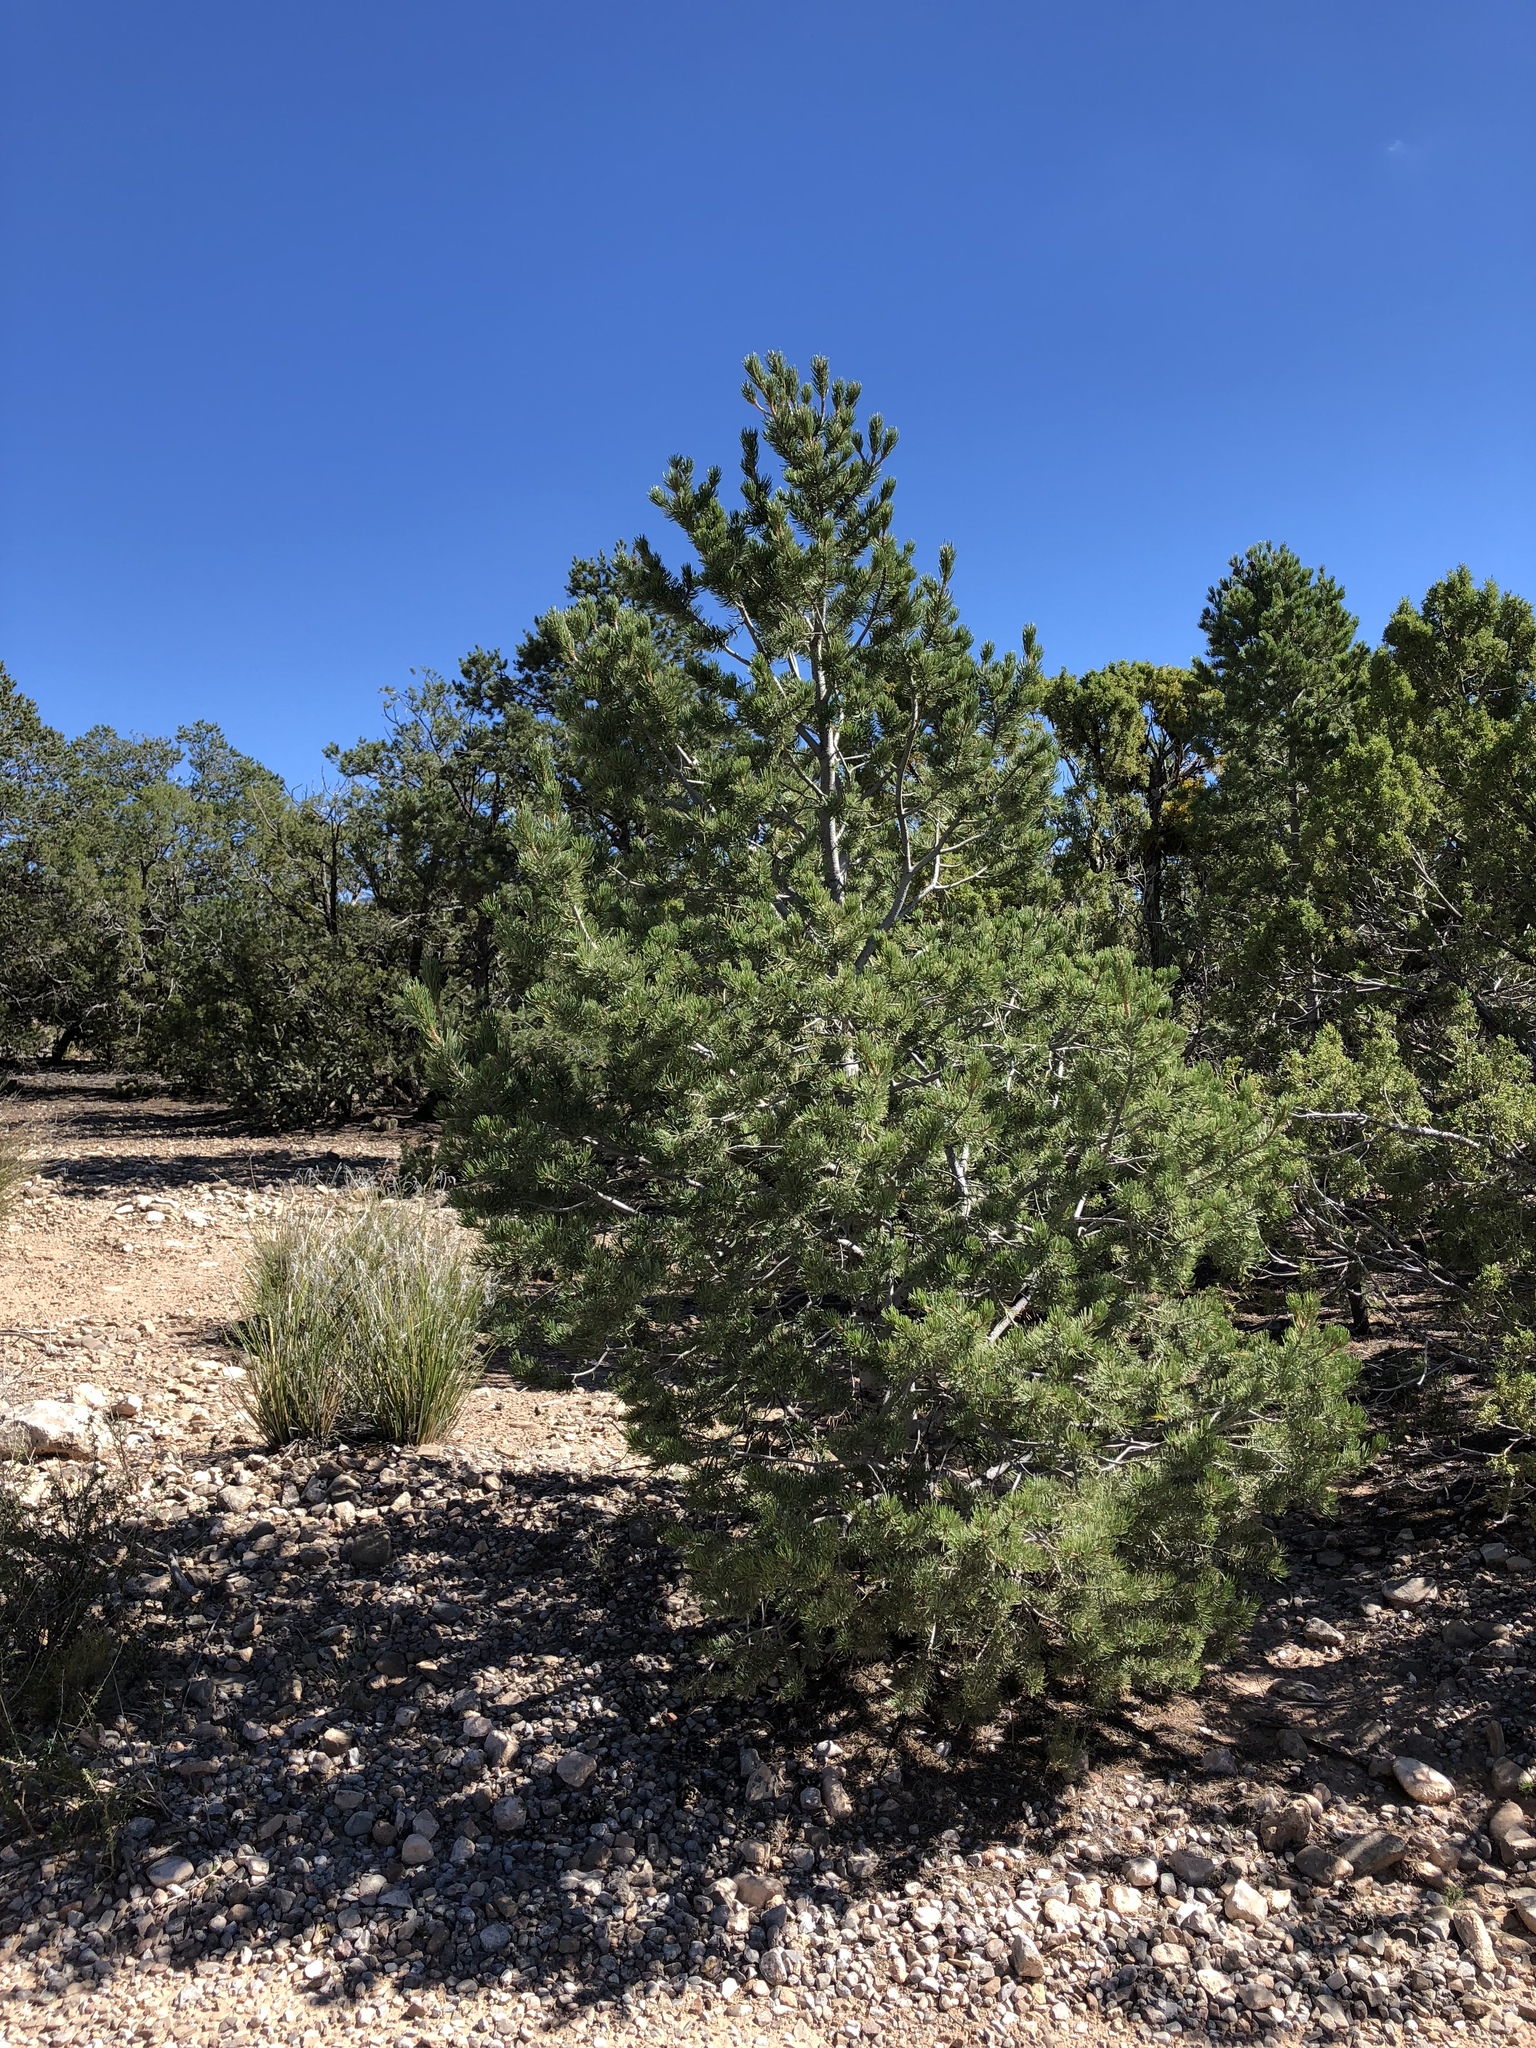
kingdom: Plantae
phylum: Tracheophyta
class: Pinopsida
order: Pinales
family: Pinaceae
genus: Pinus
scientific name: Pinus edulis
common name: Colorado pinyon
